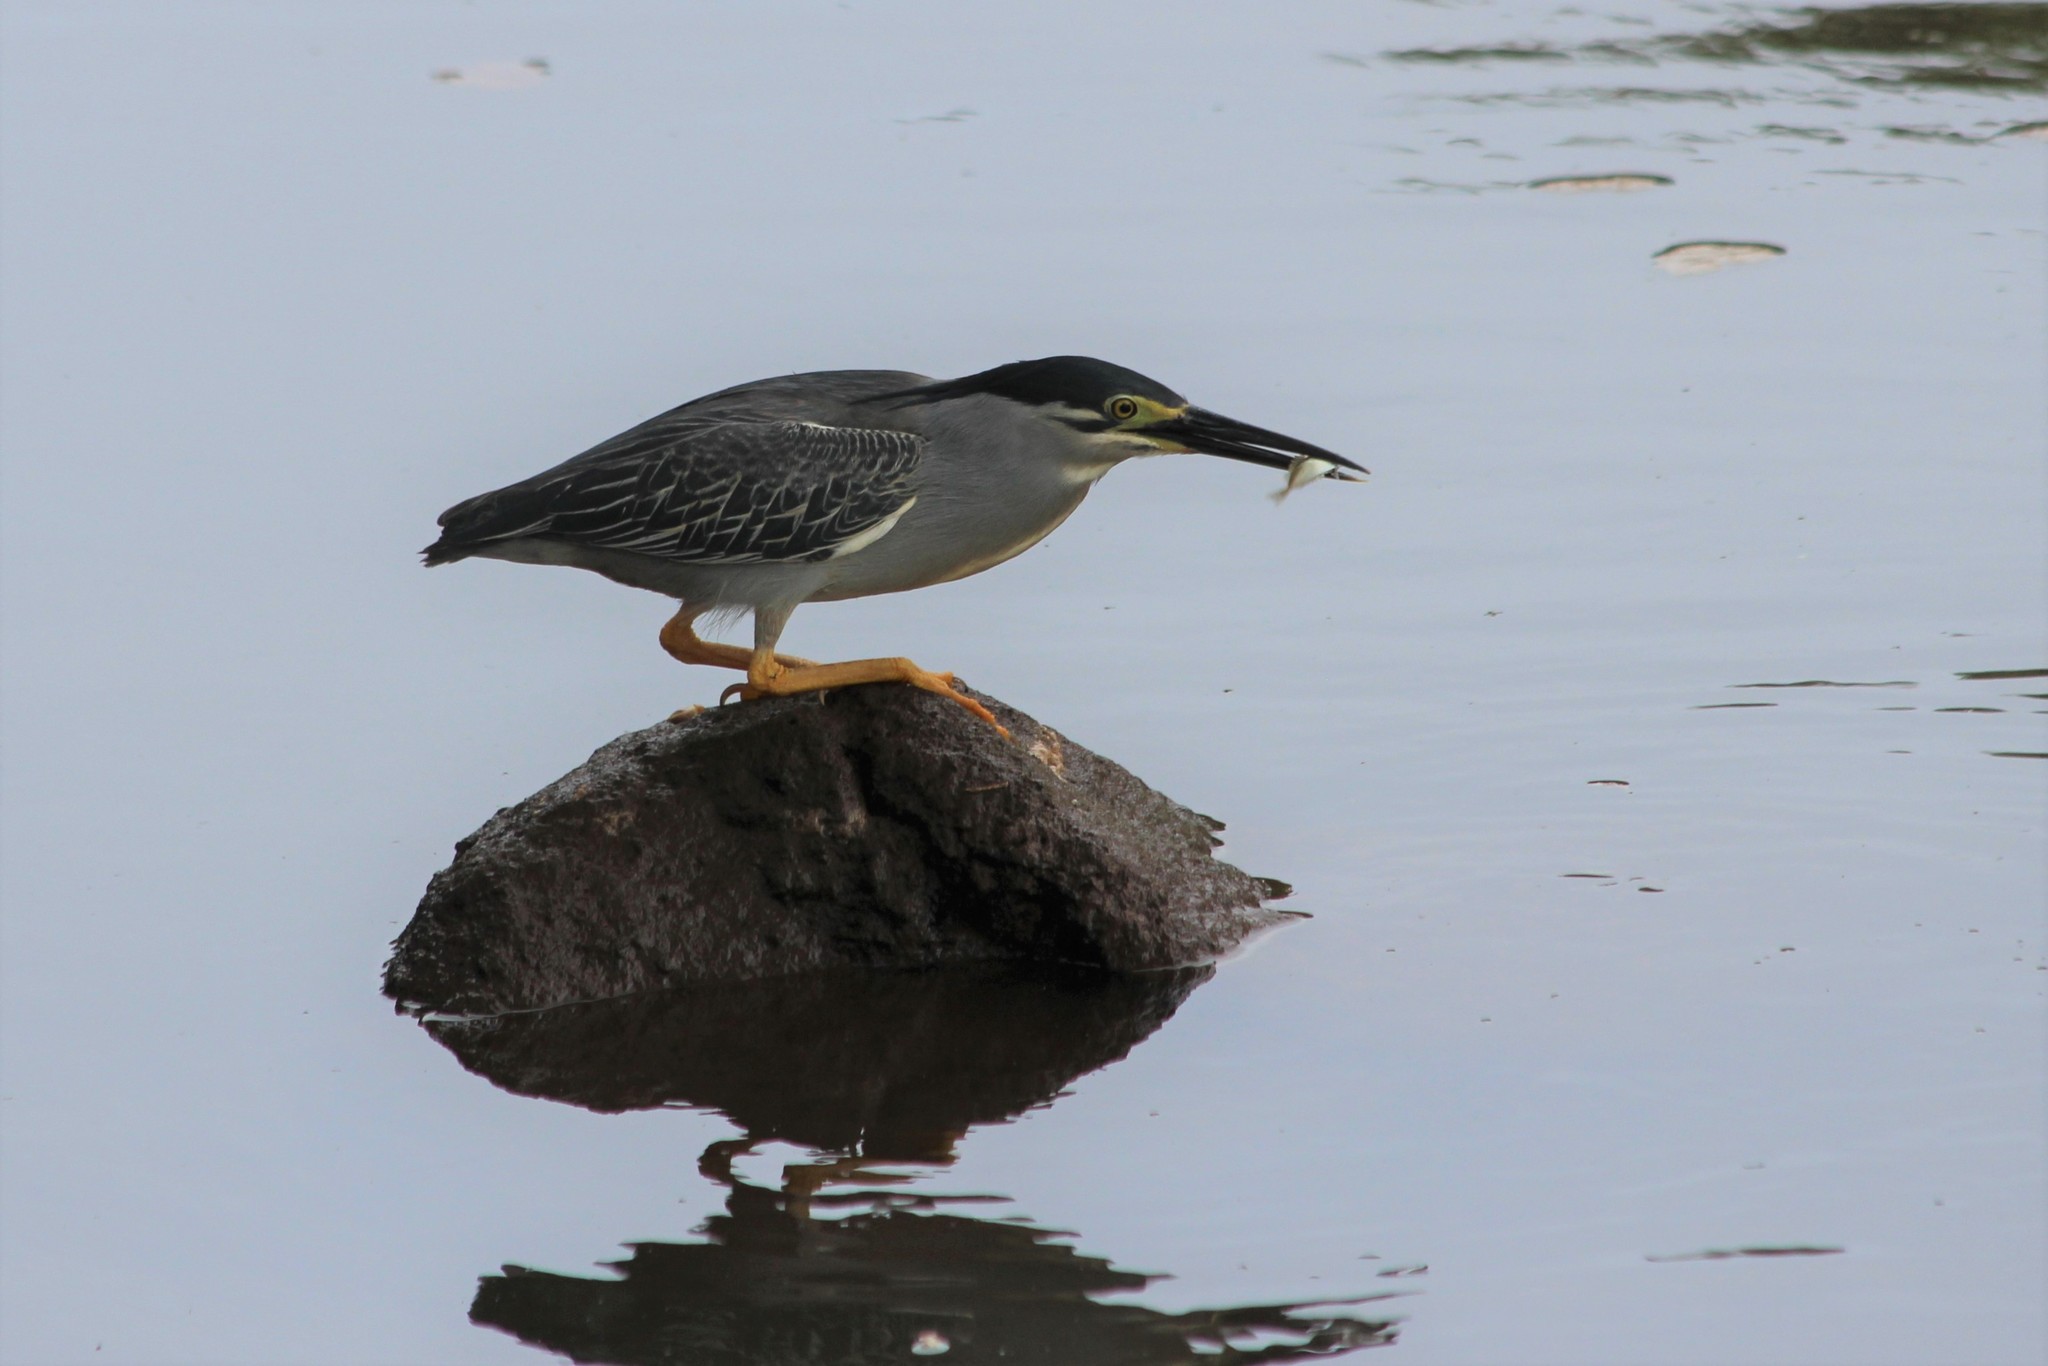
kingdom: Animalia
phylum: Chordata
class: Aves
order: Pelecaniformes
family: Ardeidae
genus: Butorides
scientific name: Butorides striata
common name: Striated heron
